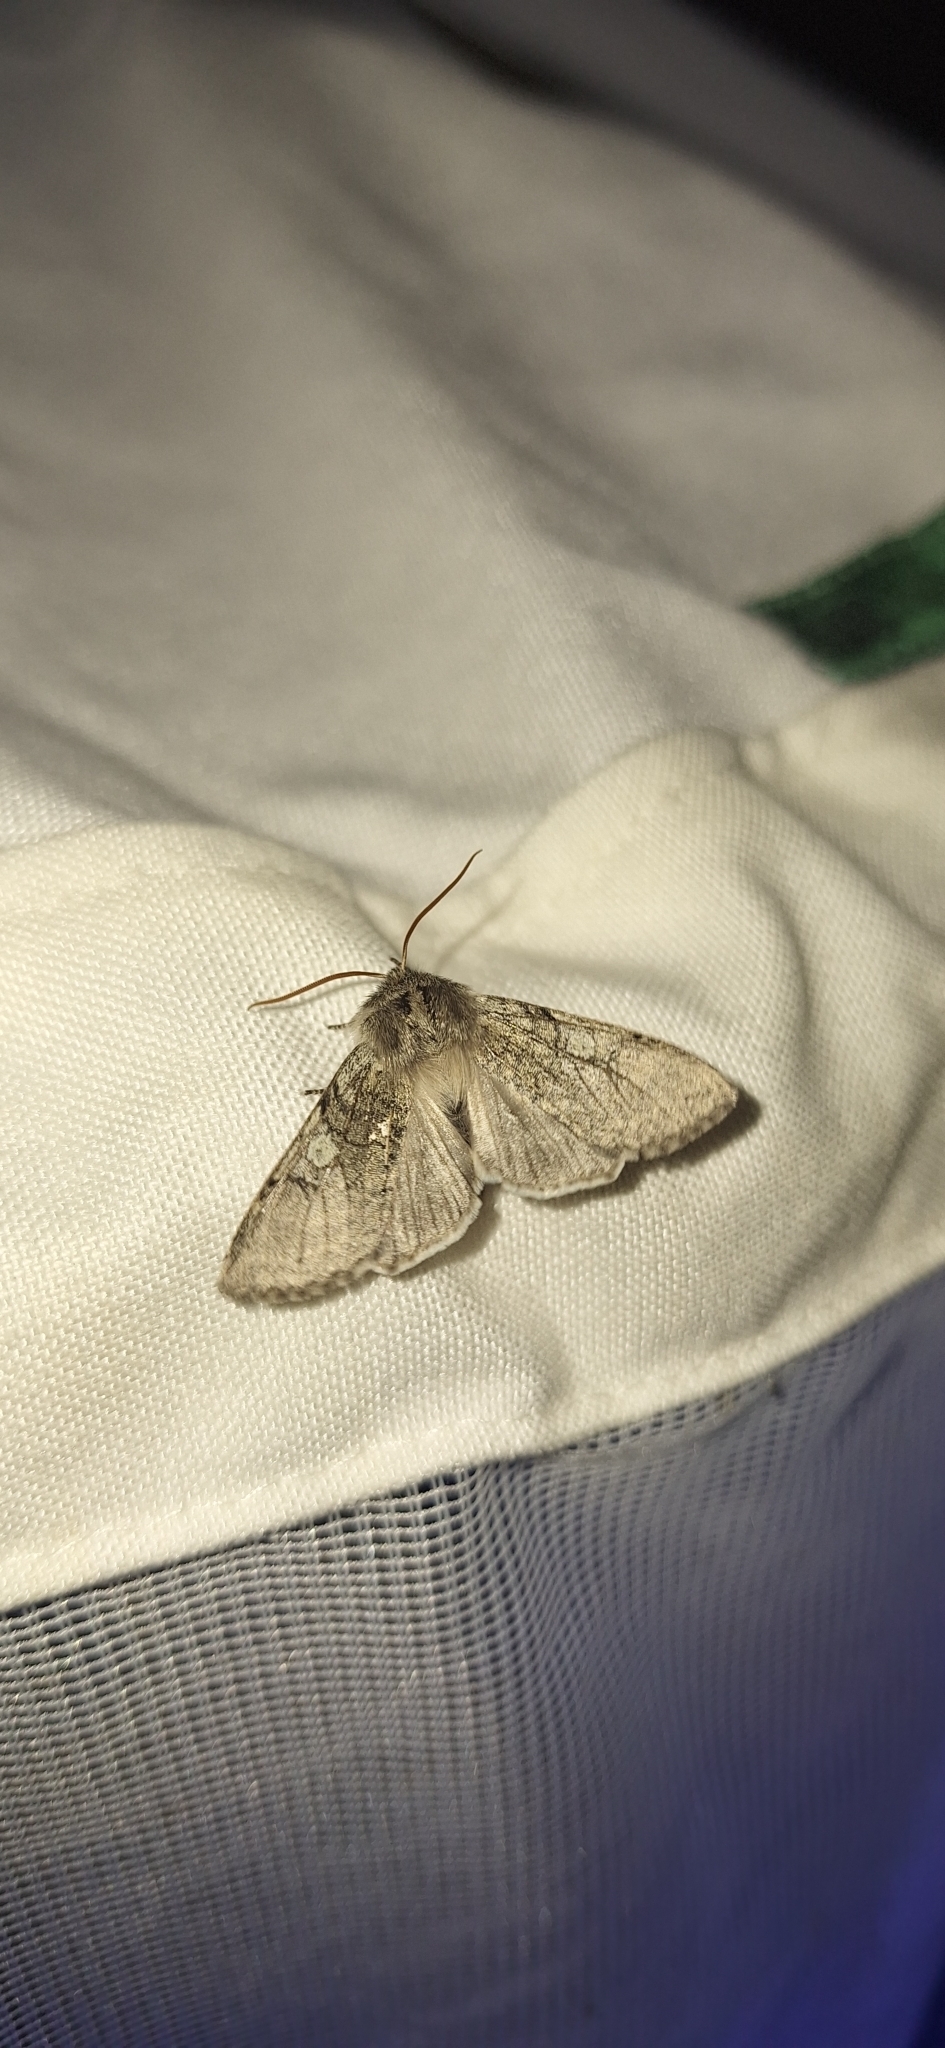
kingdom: Animalia
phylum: Arthropoda
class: Insecta
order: Lepidoptera
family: Drepanidae
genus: Achlya
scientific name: Achlya flavicornis
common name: Yellow horned
